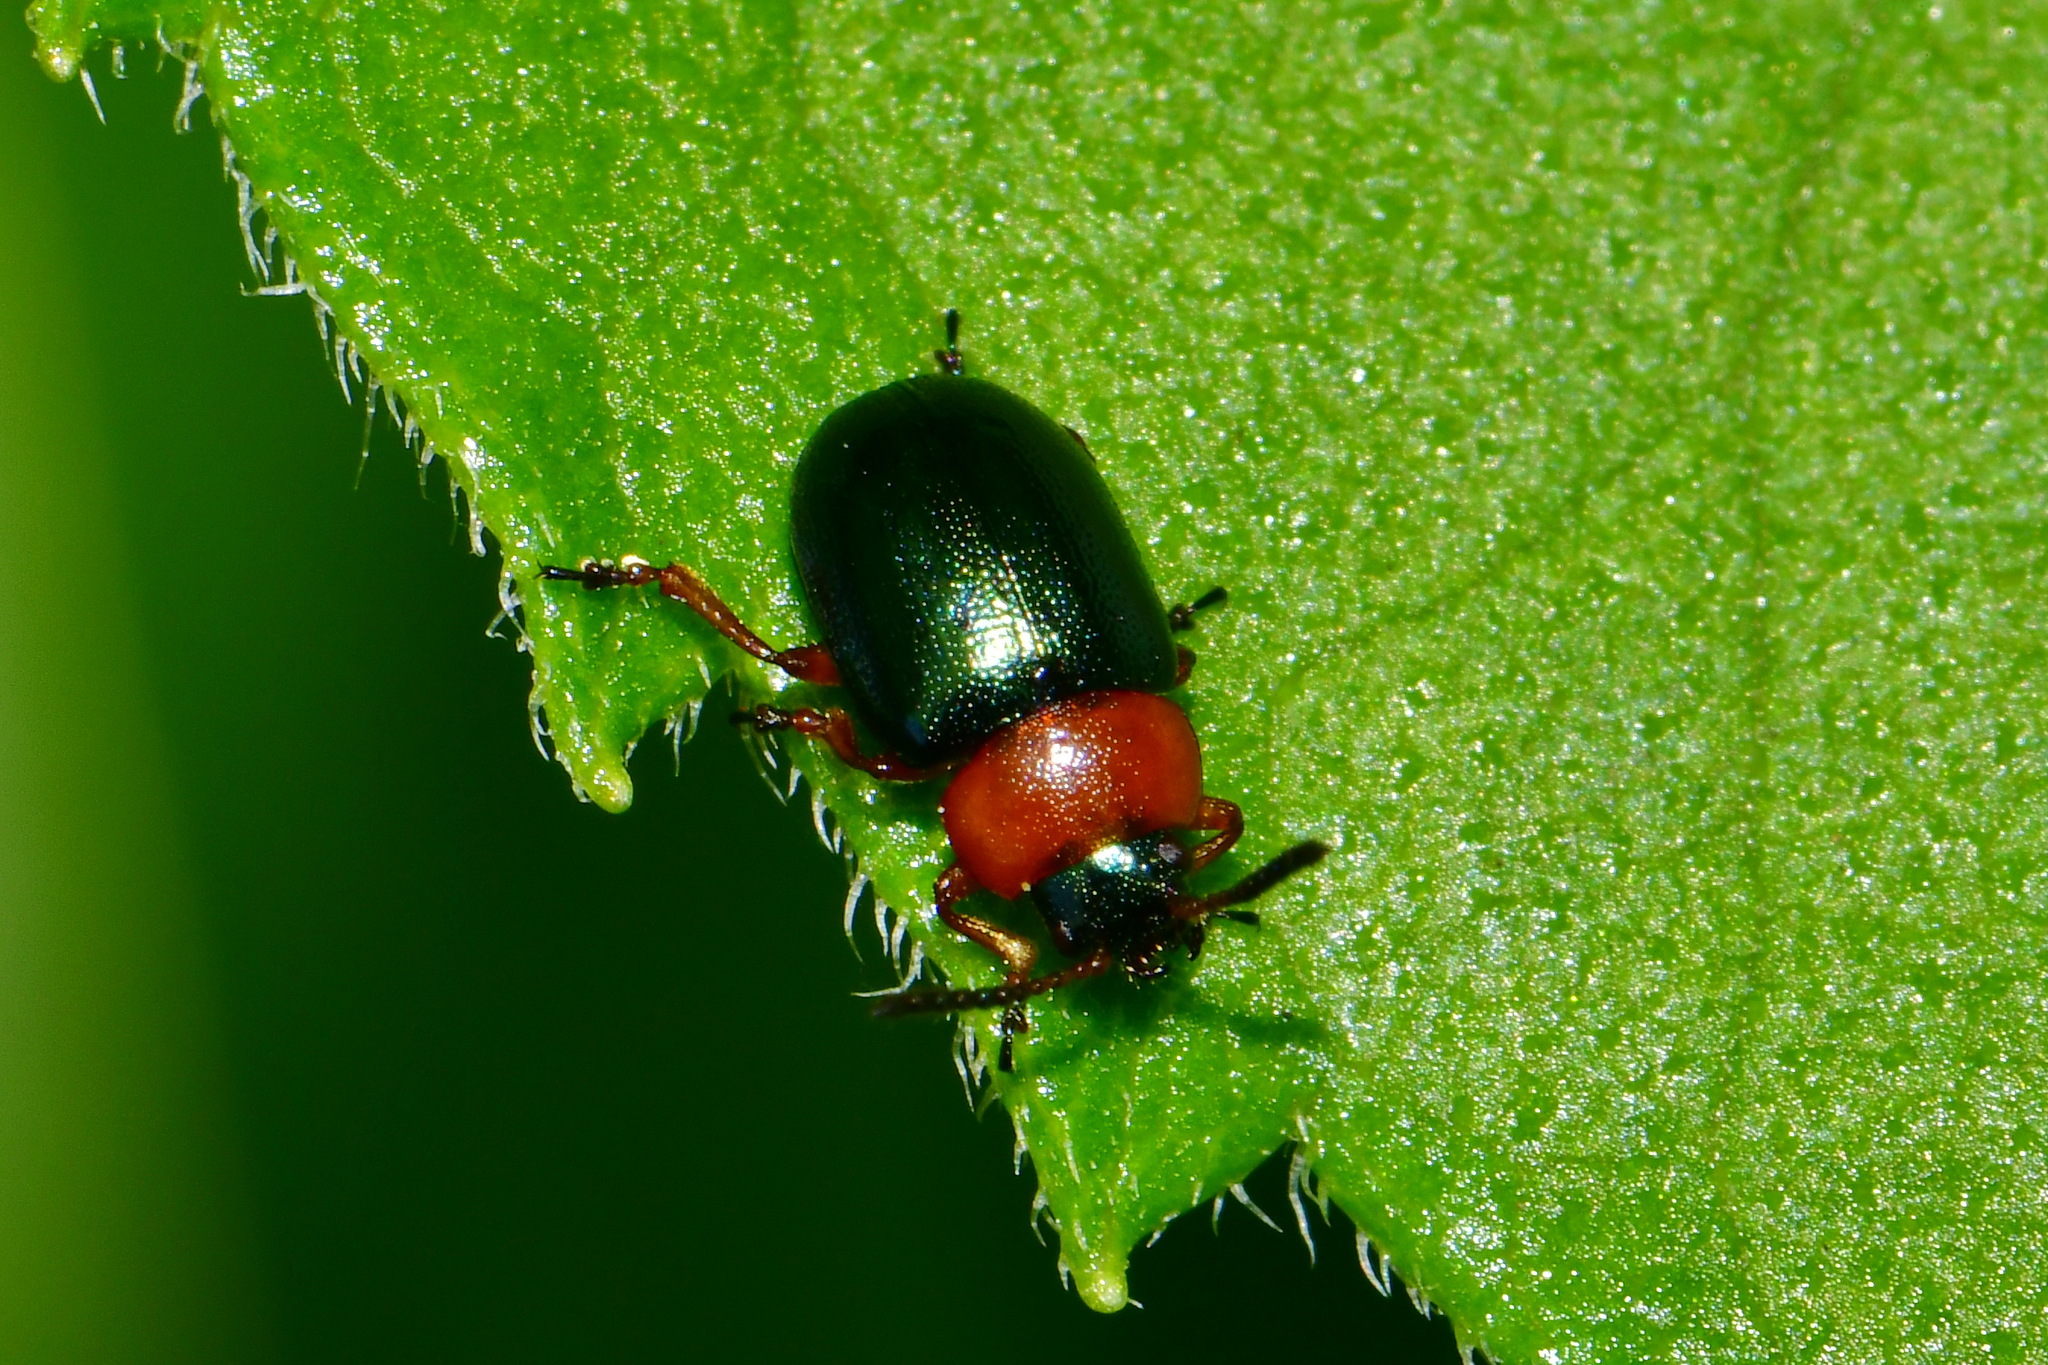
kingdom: Animalia
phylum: Arthropoda
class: Insecta
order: Coleoptera
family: Chrysomelidae
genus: Gastrophysa
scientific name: Gastrophysa polygoni
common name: Knotweed leaf beetle
